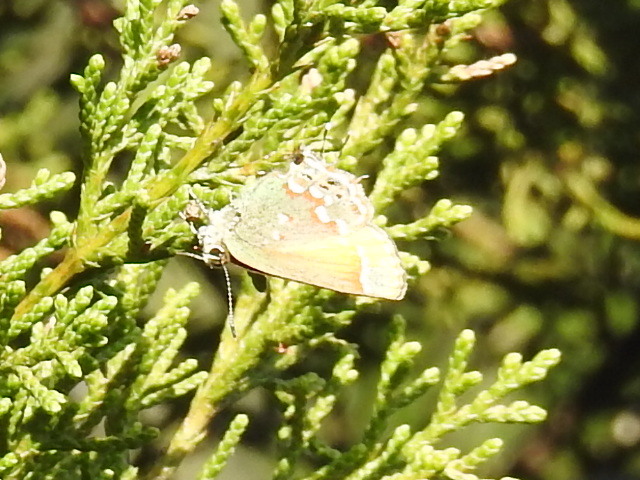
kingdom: Animalia
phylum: Arthropoda
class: Insecta
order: Lepidoptera
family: Lycaenidae
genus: Mitoura
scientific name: Mitoura gryneus
